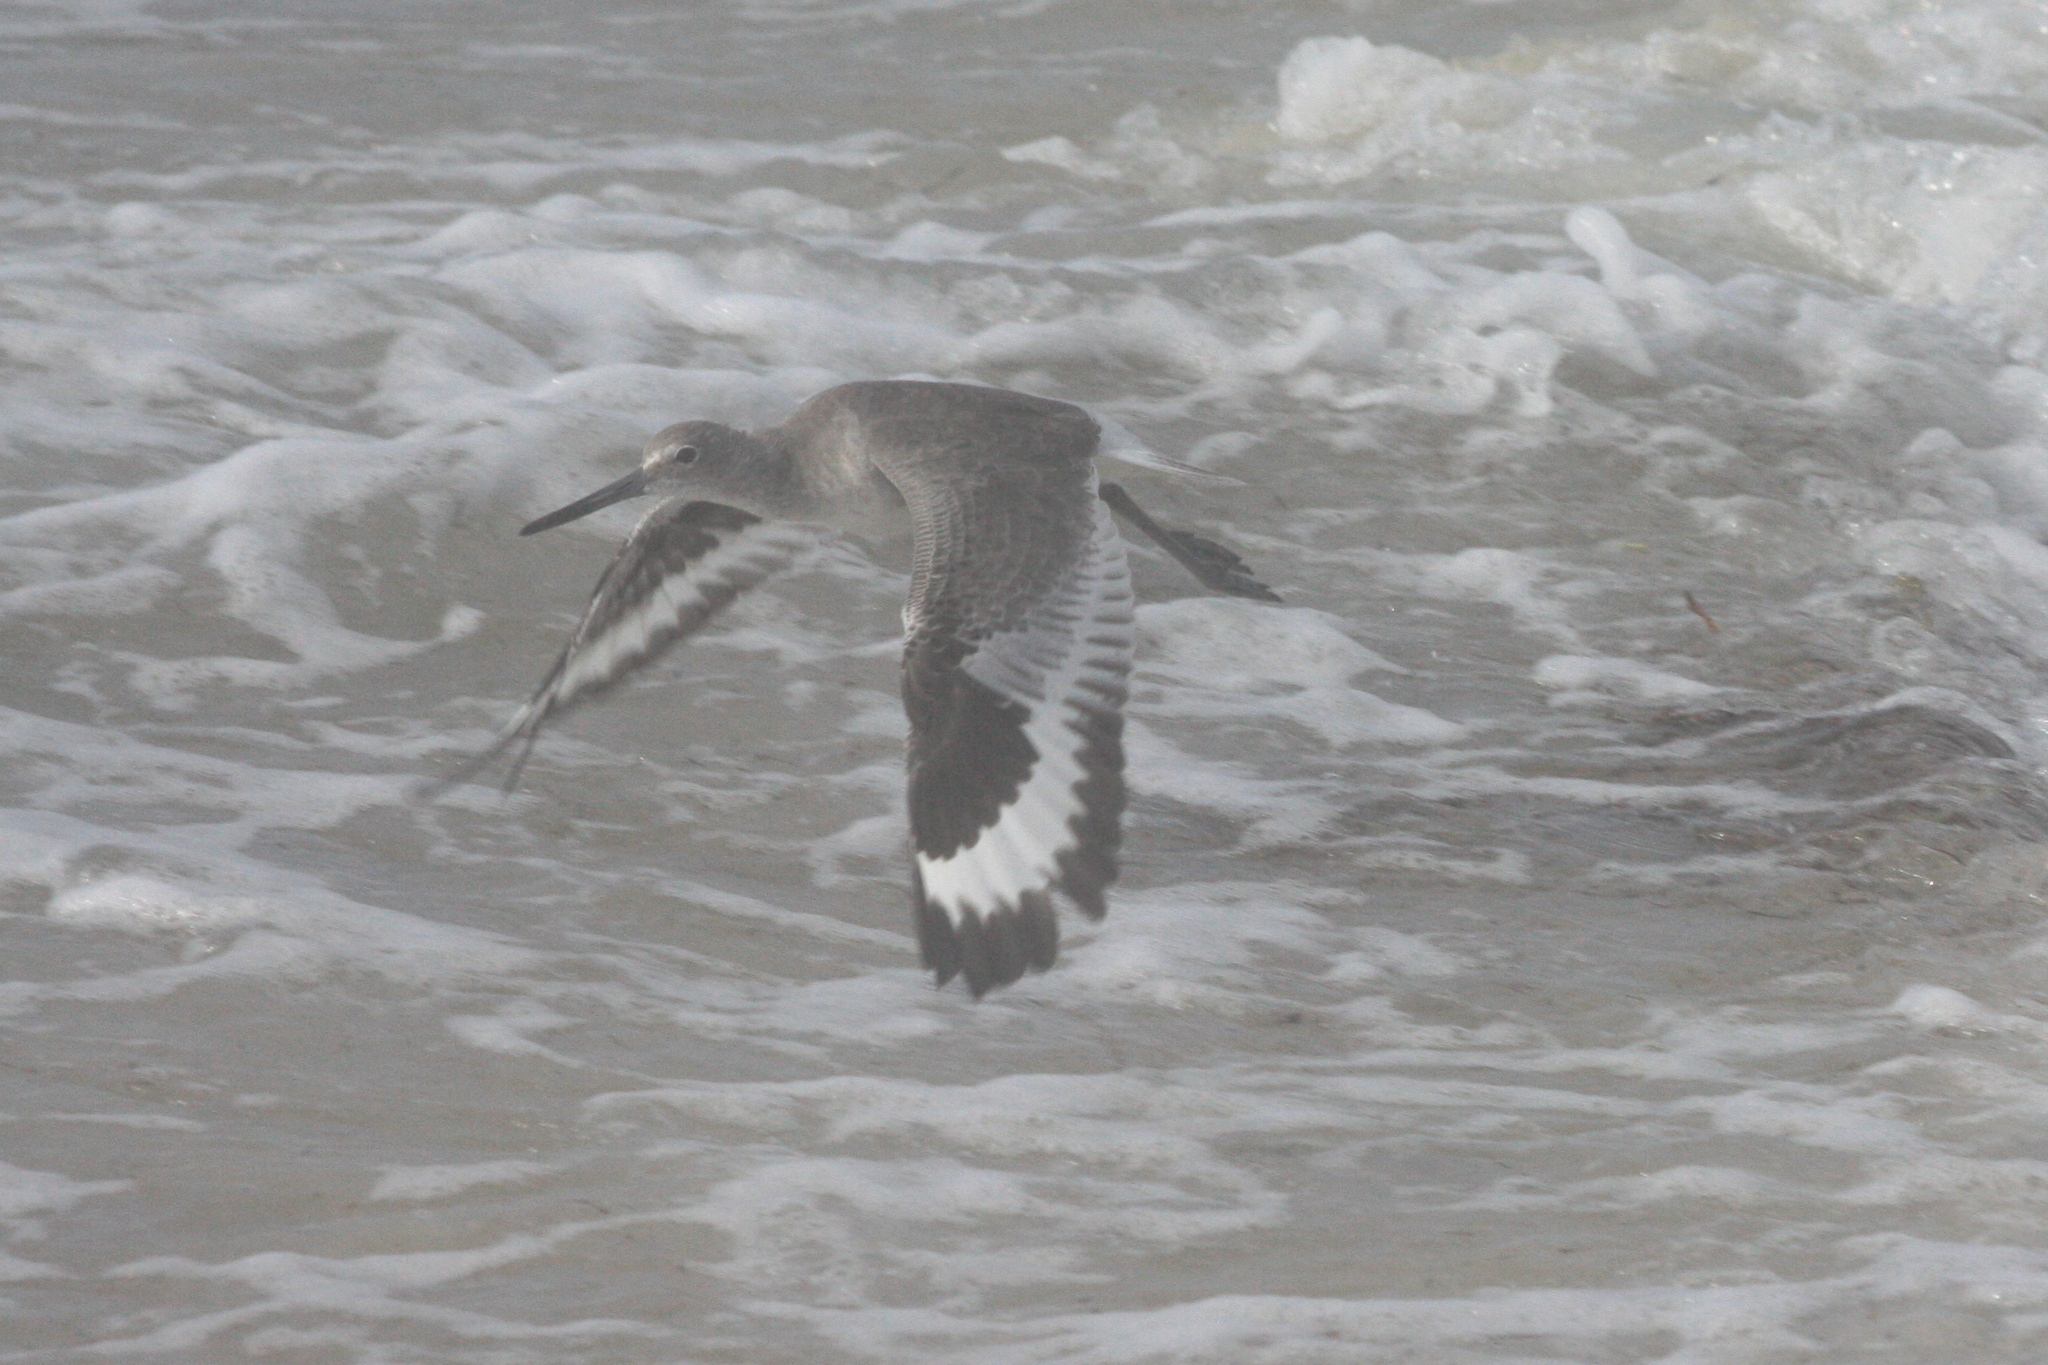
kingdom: Animalia
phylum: Chordata
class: Aves
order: Charadriiformes
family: Scolopacidae
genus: Tringa
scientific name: Tringa semipalmata
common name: Willet
